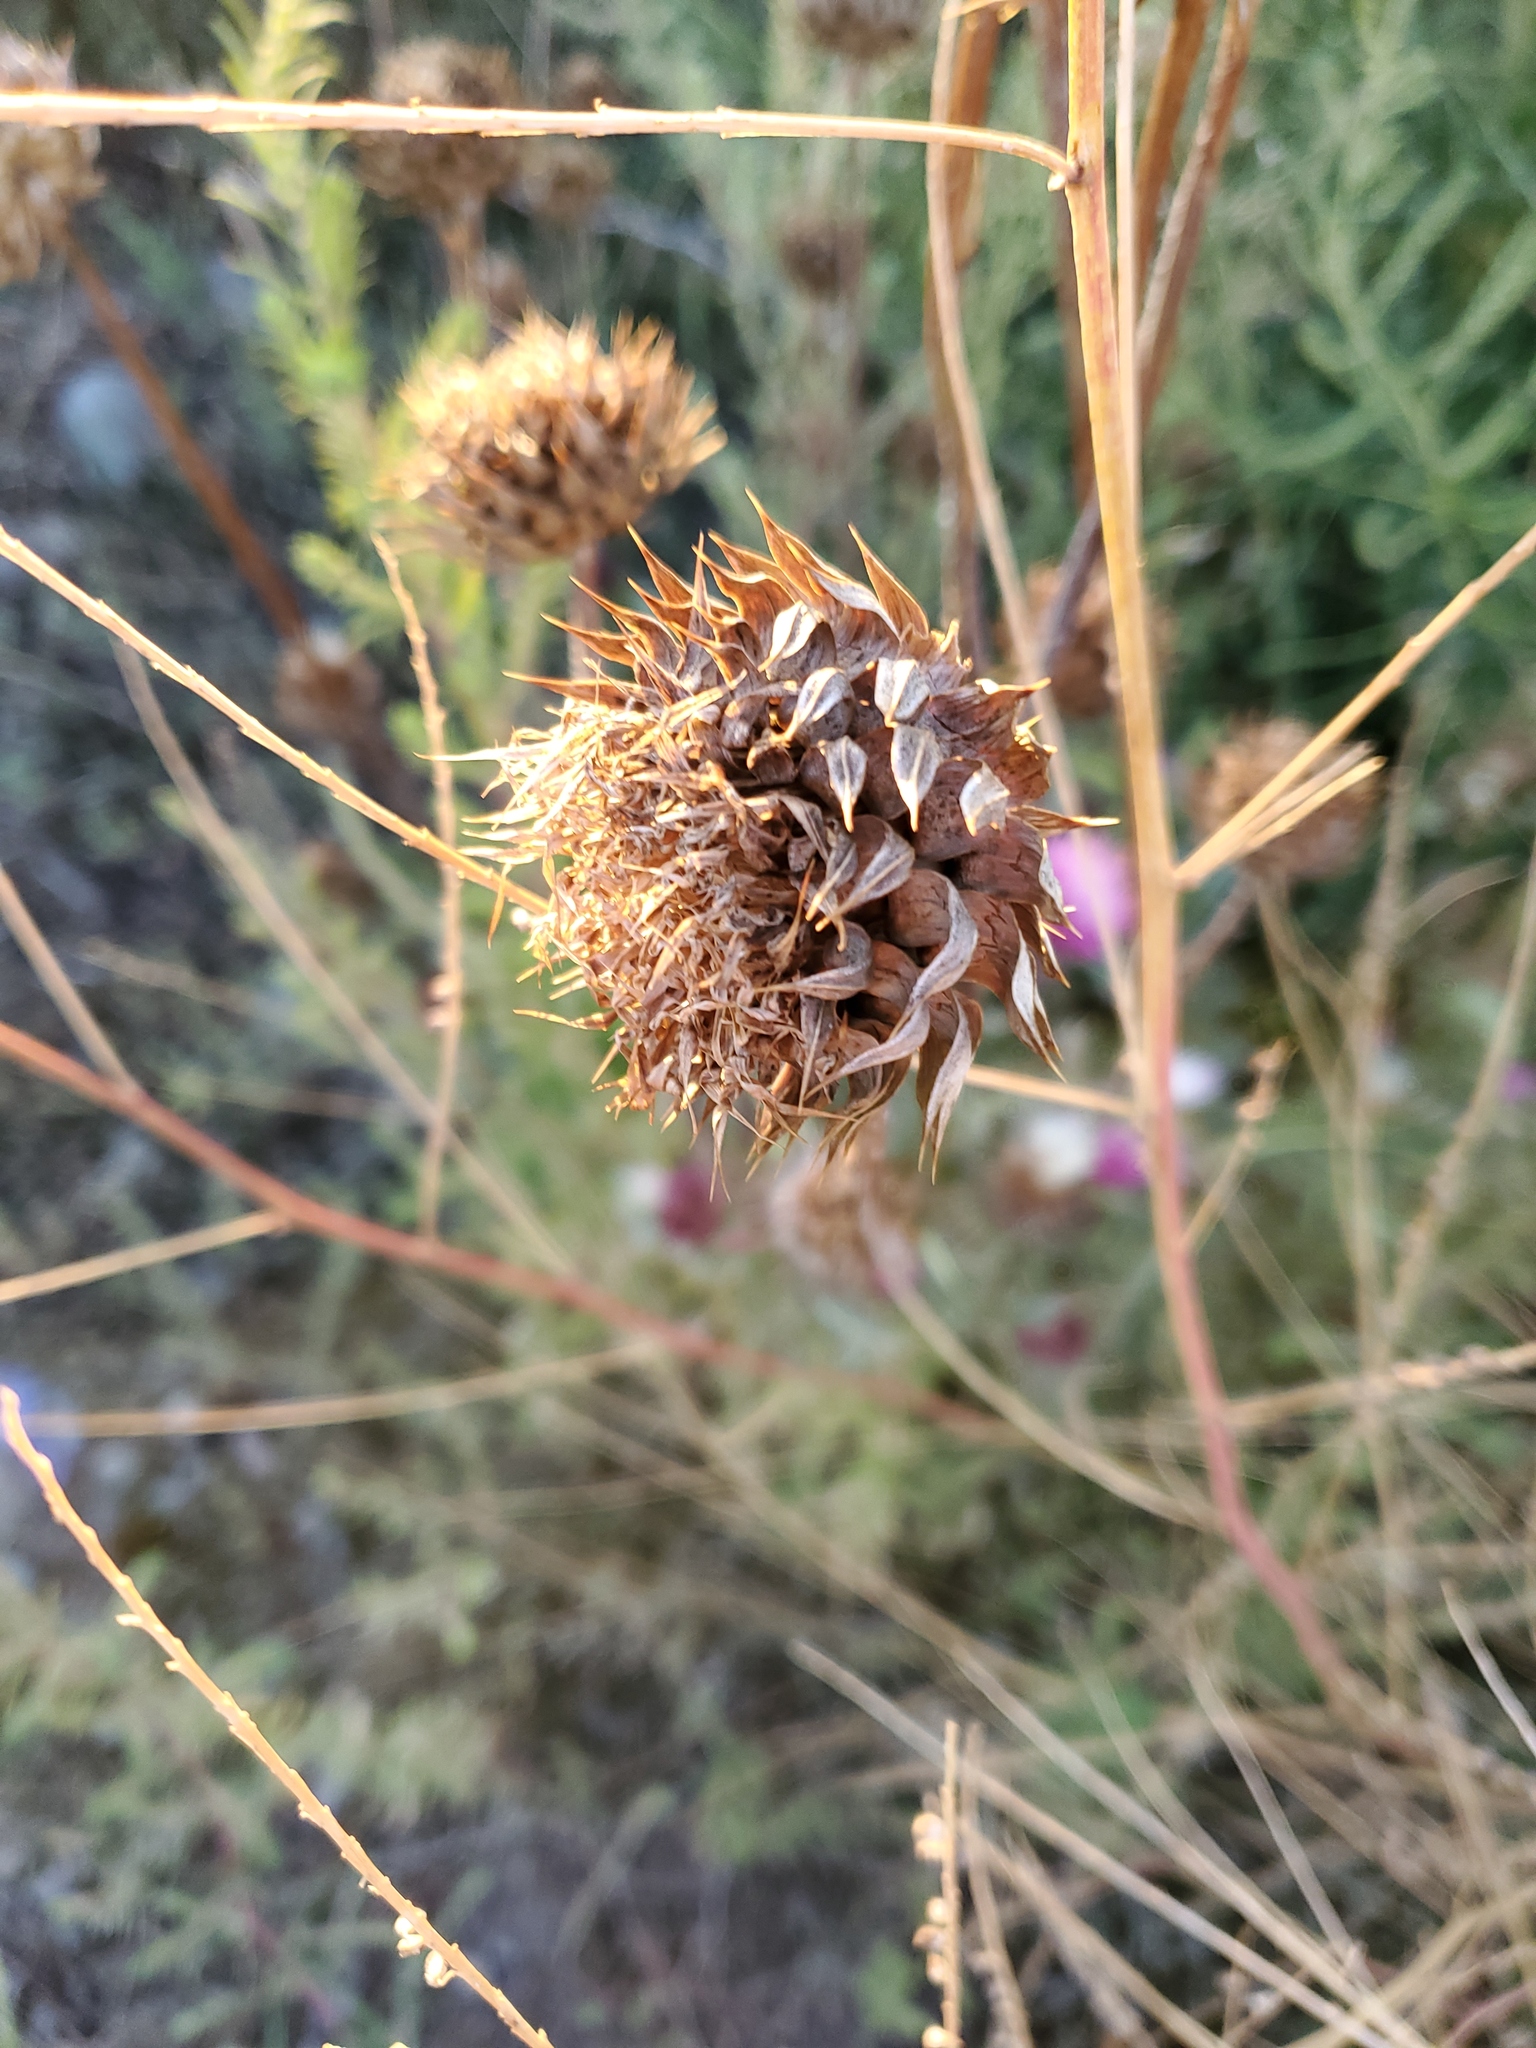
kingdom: Plantae
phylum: Tracheophyta
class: Magnoliopsida
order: Asterales
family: Asteraceae
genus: Carduus
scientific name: Carduus nutans
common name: Musk thistle
